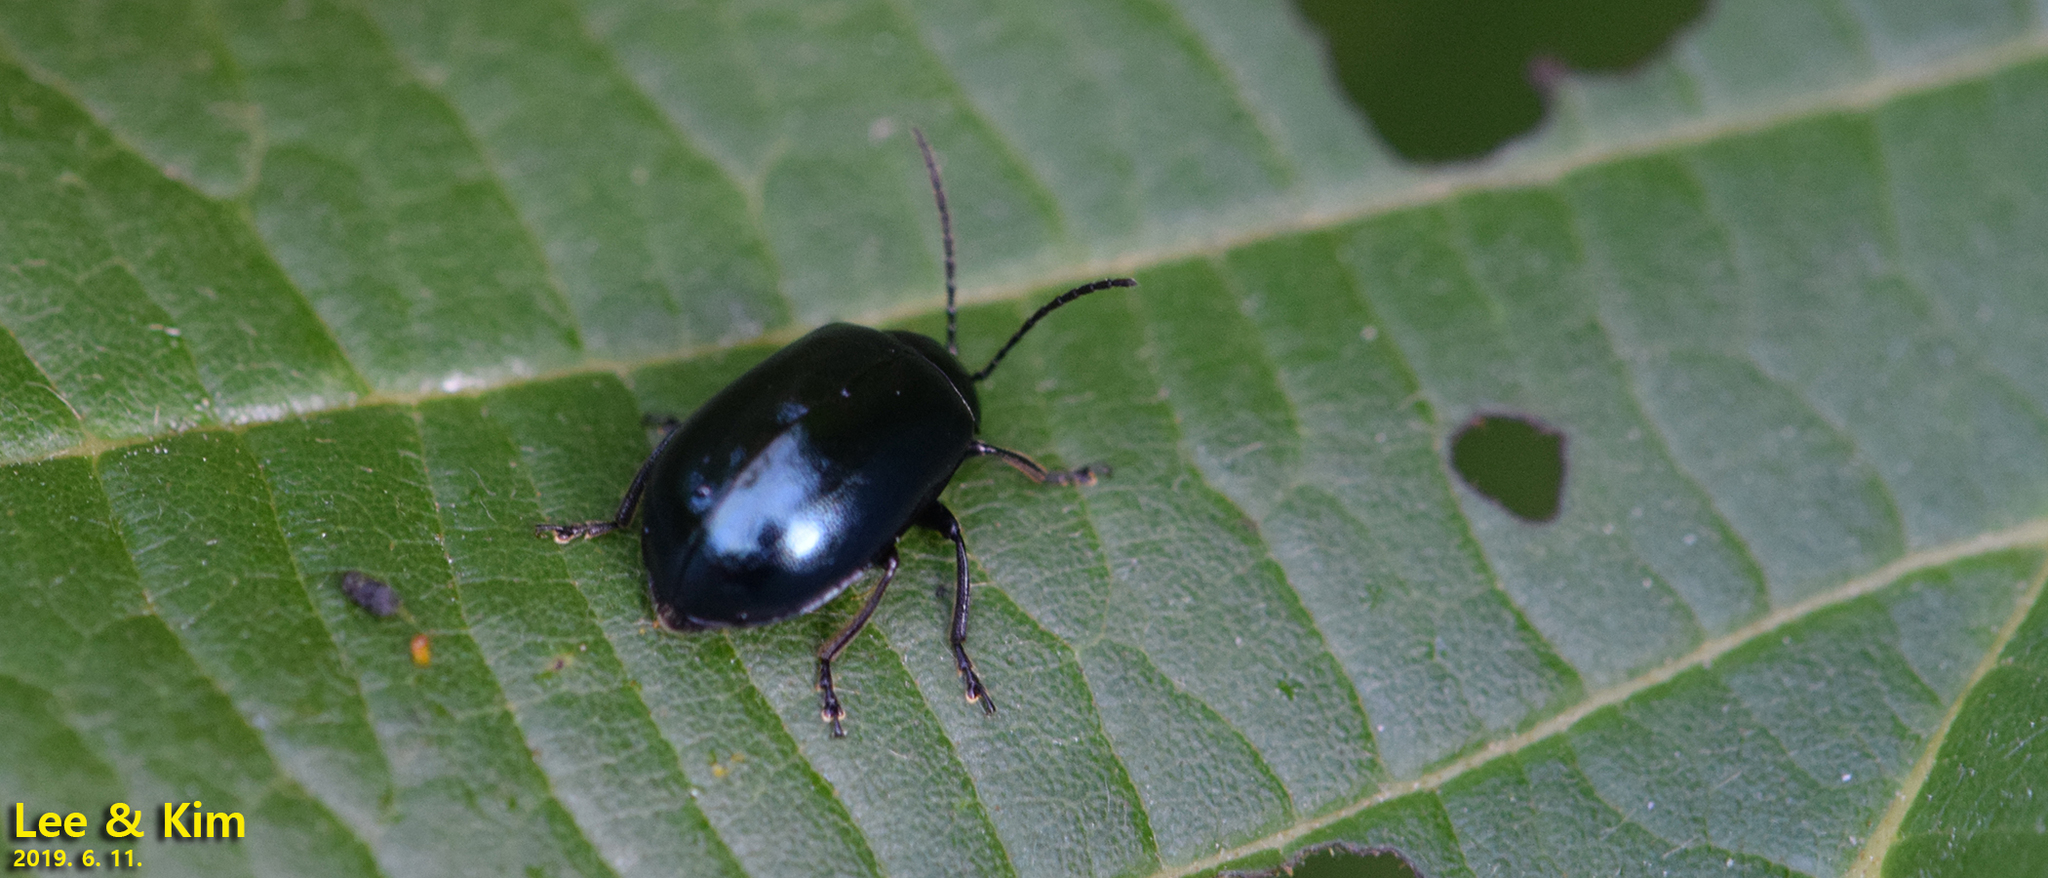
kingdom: Animalia
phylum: Arthropoda
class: Insecta
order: Coleoptera
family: Chrysomelidae
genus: Agelastica
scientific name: Agelastica coerulea
